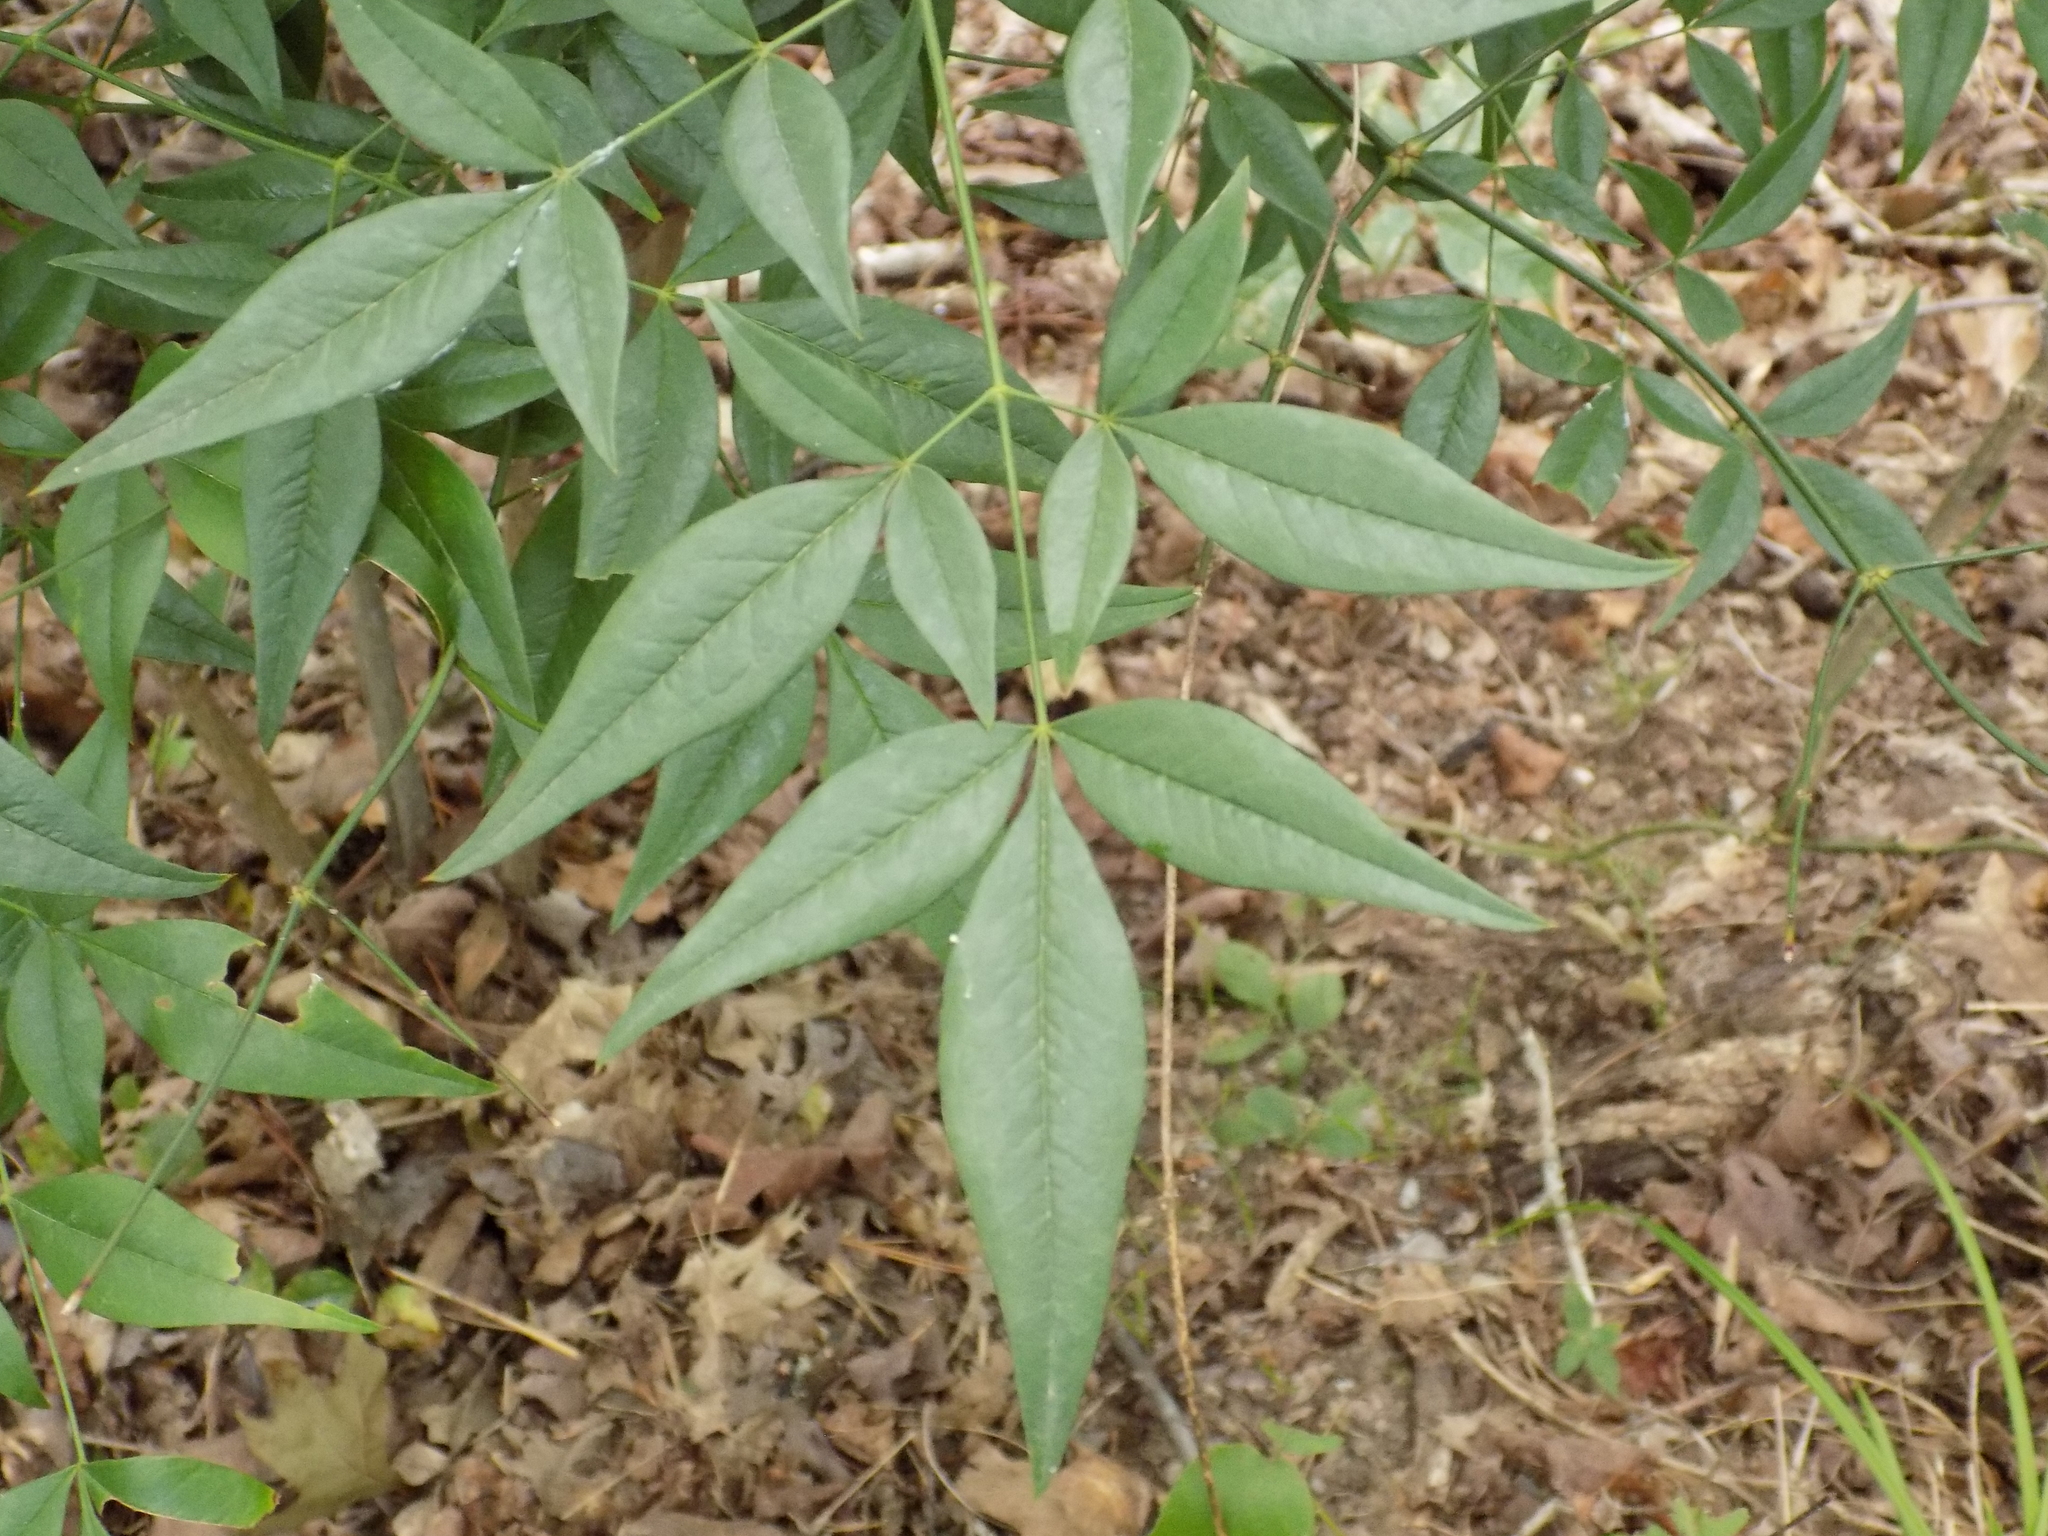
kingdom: Plantae
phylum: Tracheophyta
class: Magnoliopsida
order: Ranunculales
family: Berberidaceae
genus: Nandina
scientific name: Nandina domestica
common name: Sacred bamboo
